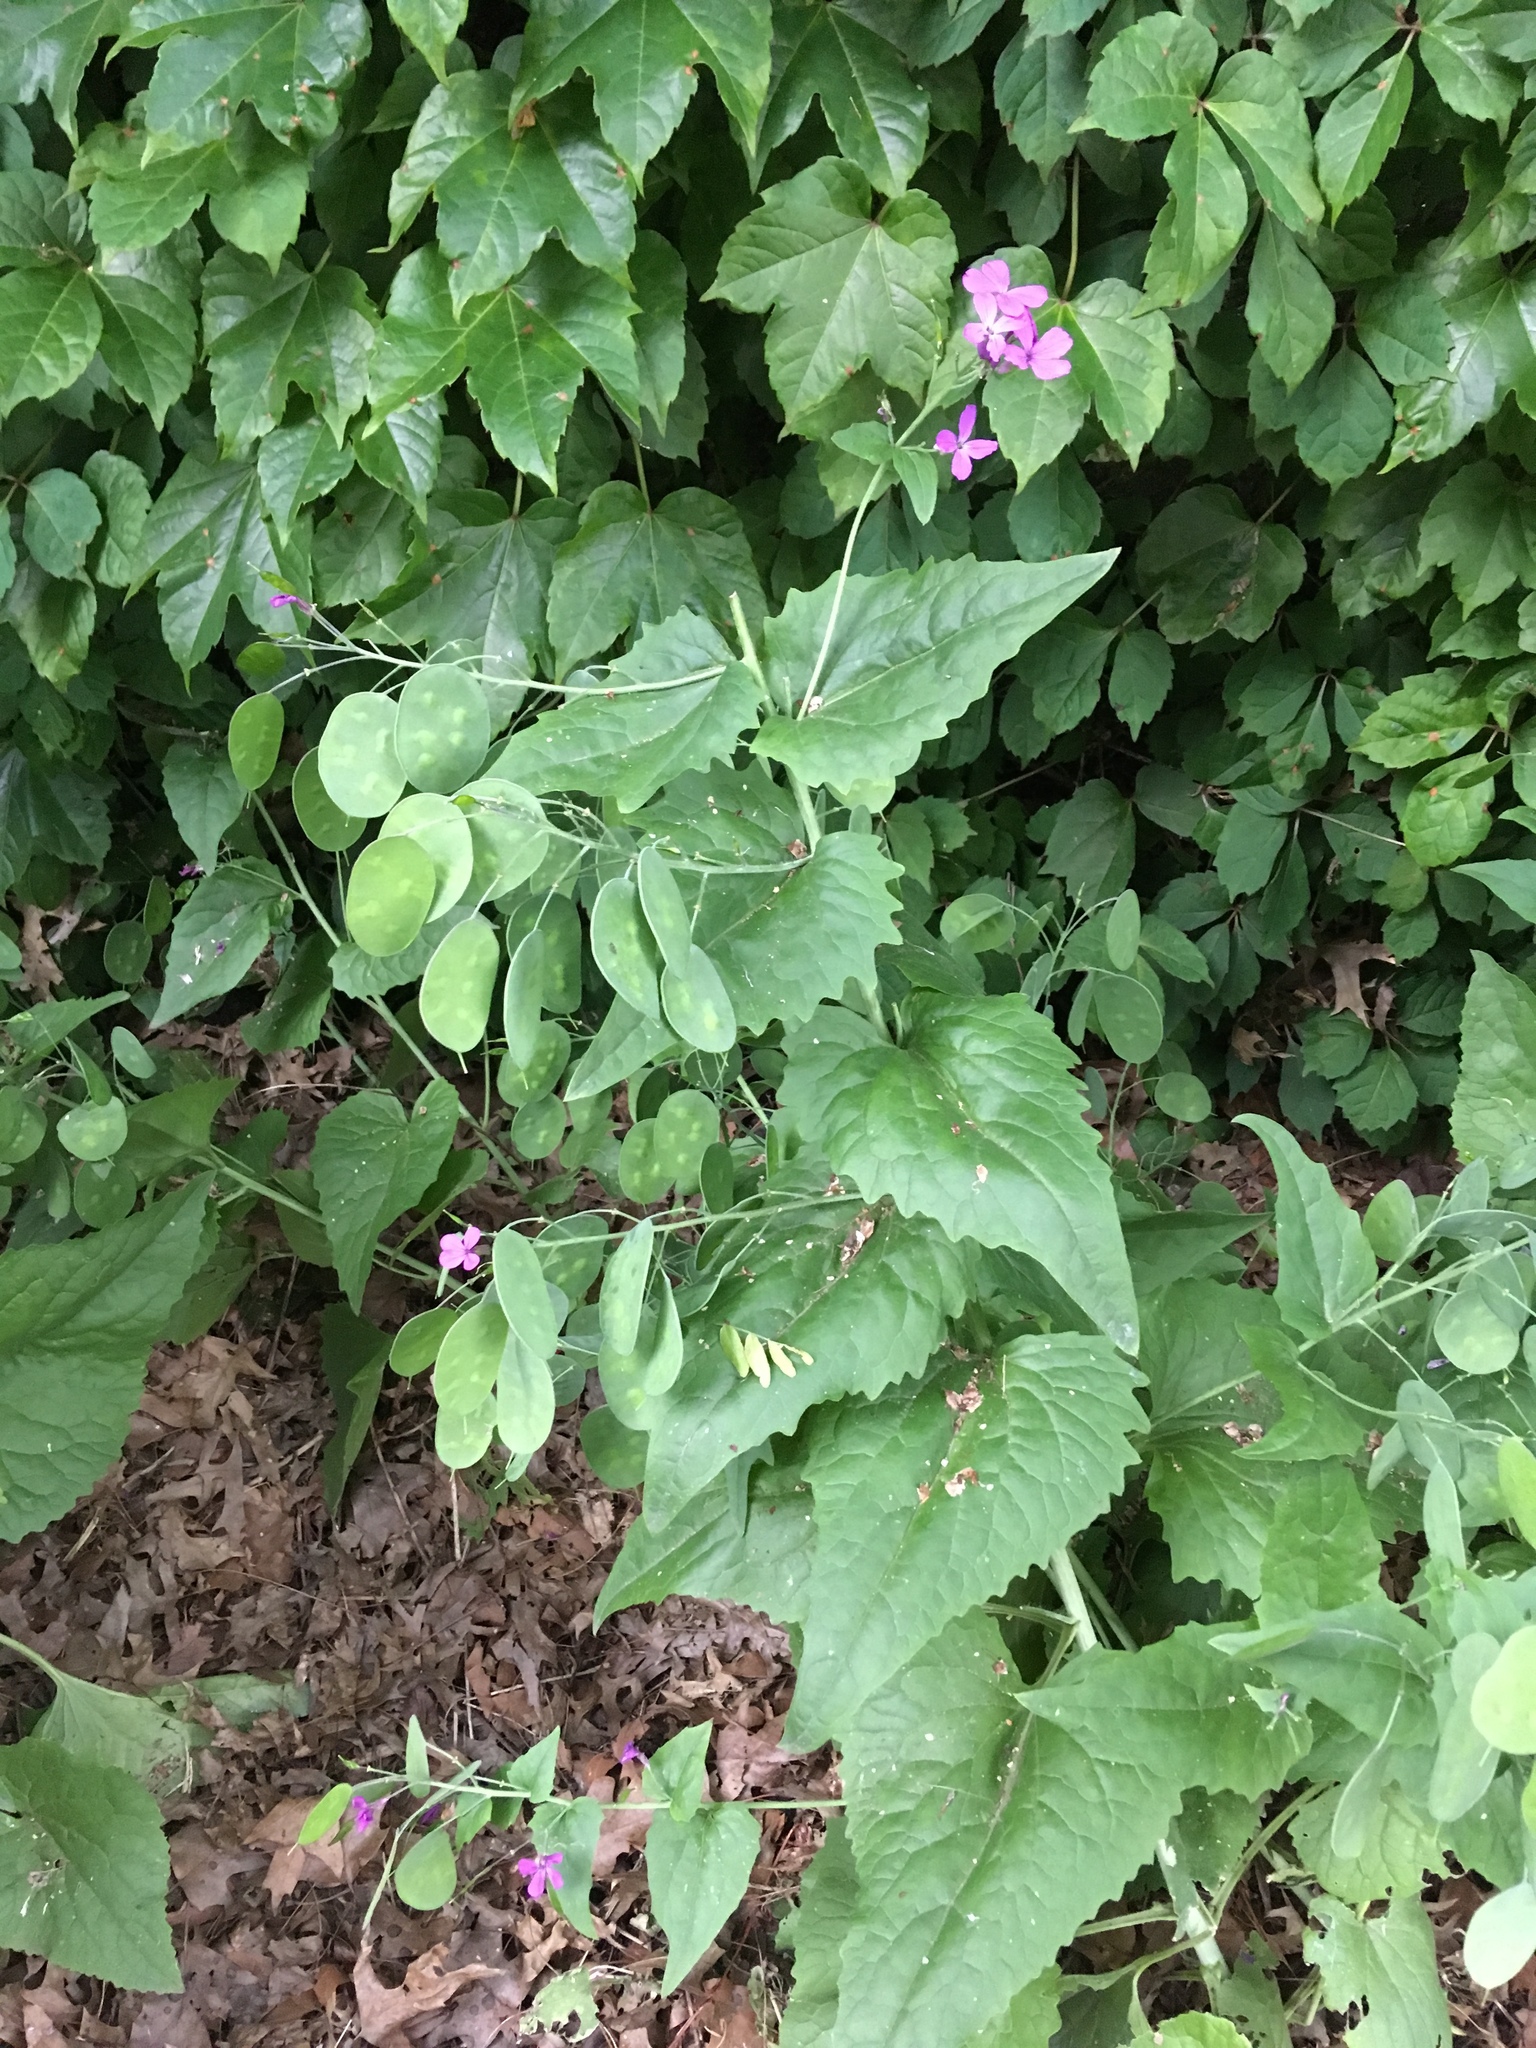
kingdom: Plantae
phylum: Tracheophyta
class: Magnoliopsida
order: Brassicales
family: Brassicaceae
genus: Lunaria
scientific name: Lunaria annua
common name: Honesty
